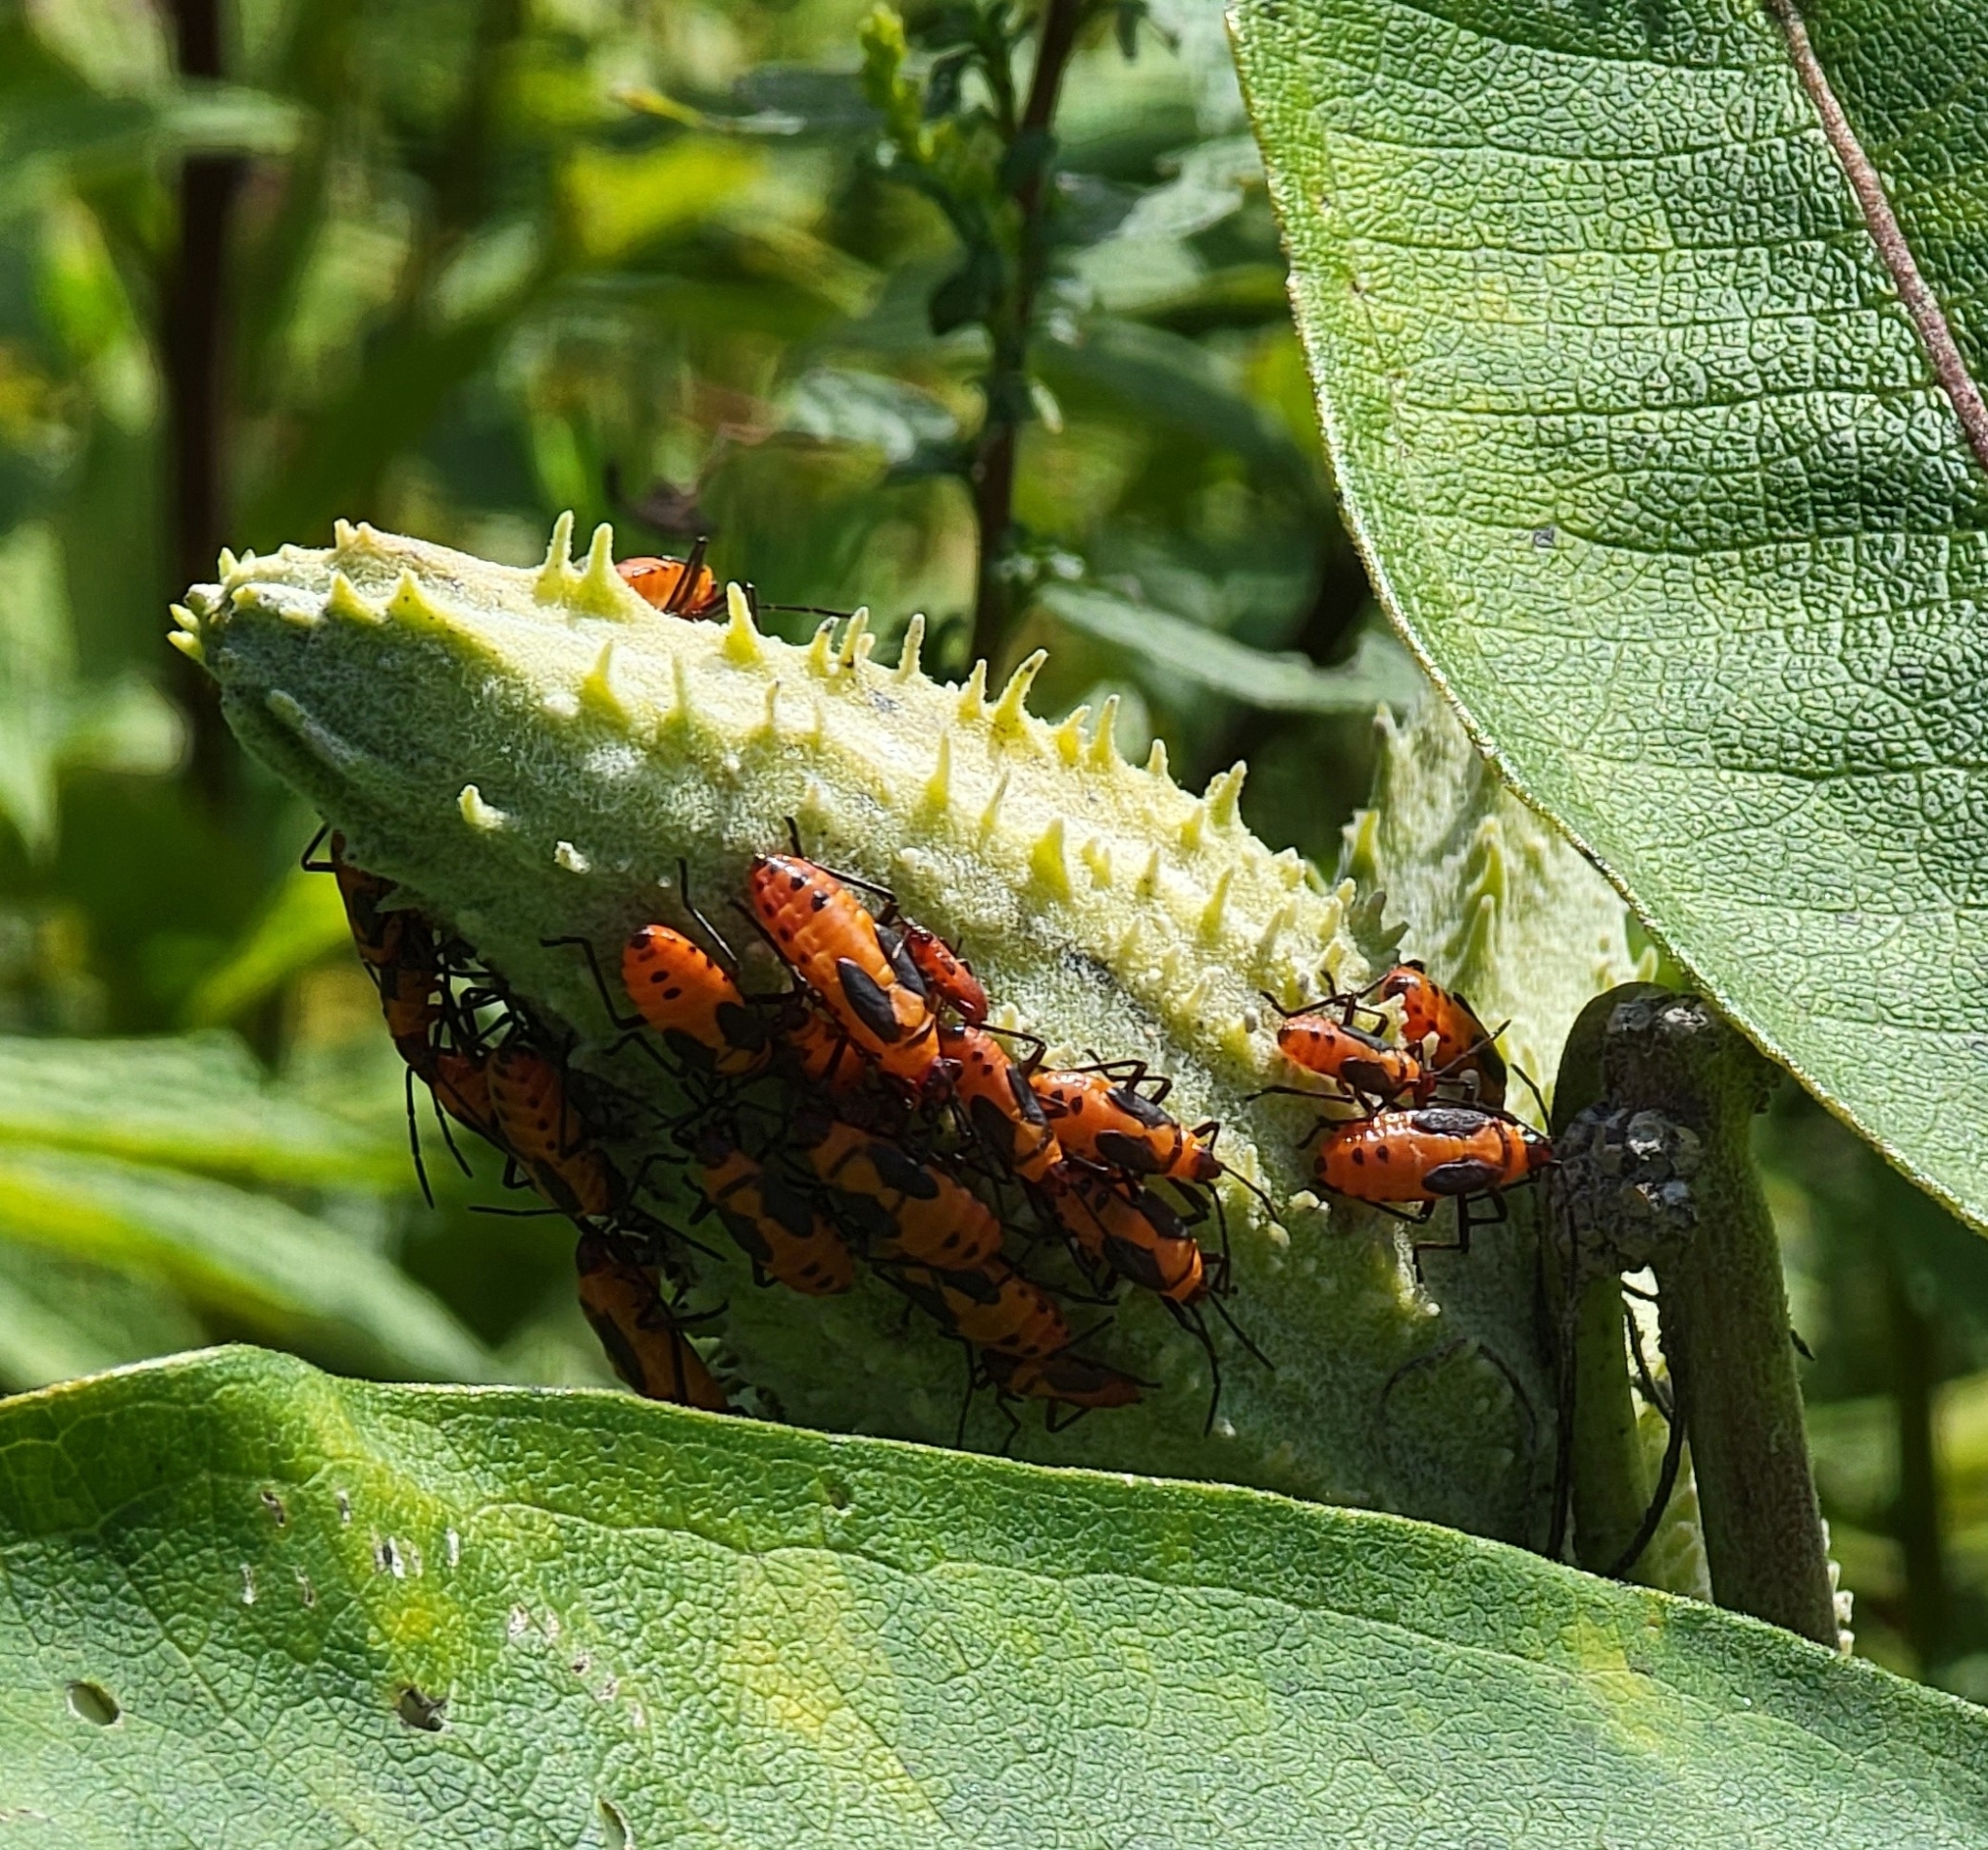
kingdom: Animalia
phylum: Arthropoda
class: Insecta
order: Hemiptera
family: Lygaeidae
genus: Oncopeltus
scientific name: Oncopeltus fasciatus
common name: Large milkweed bug
